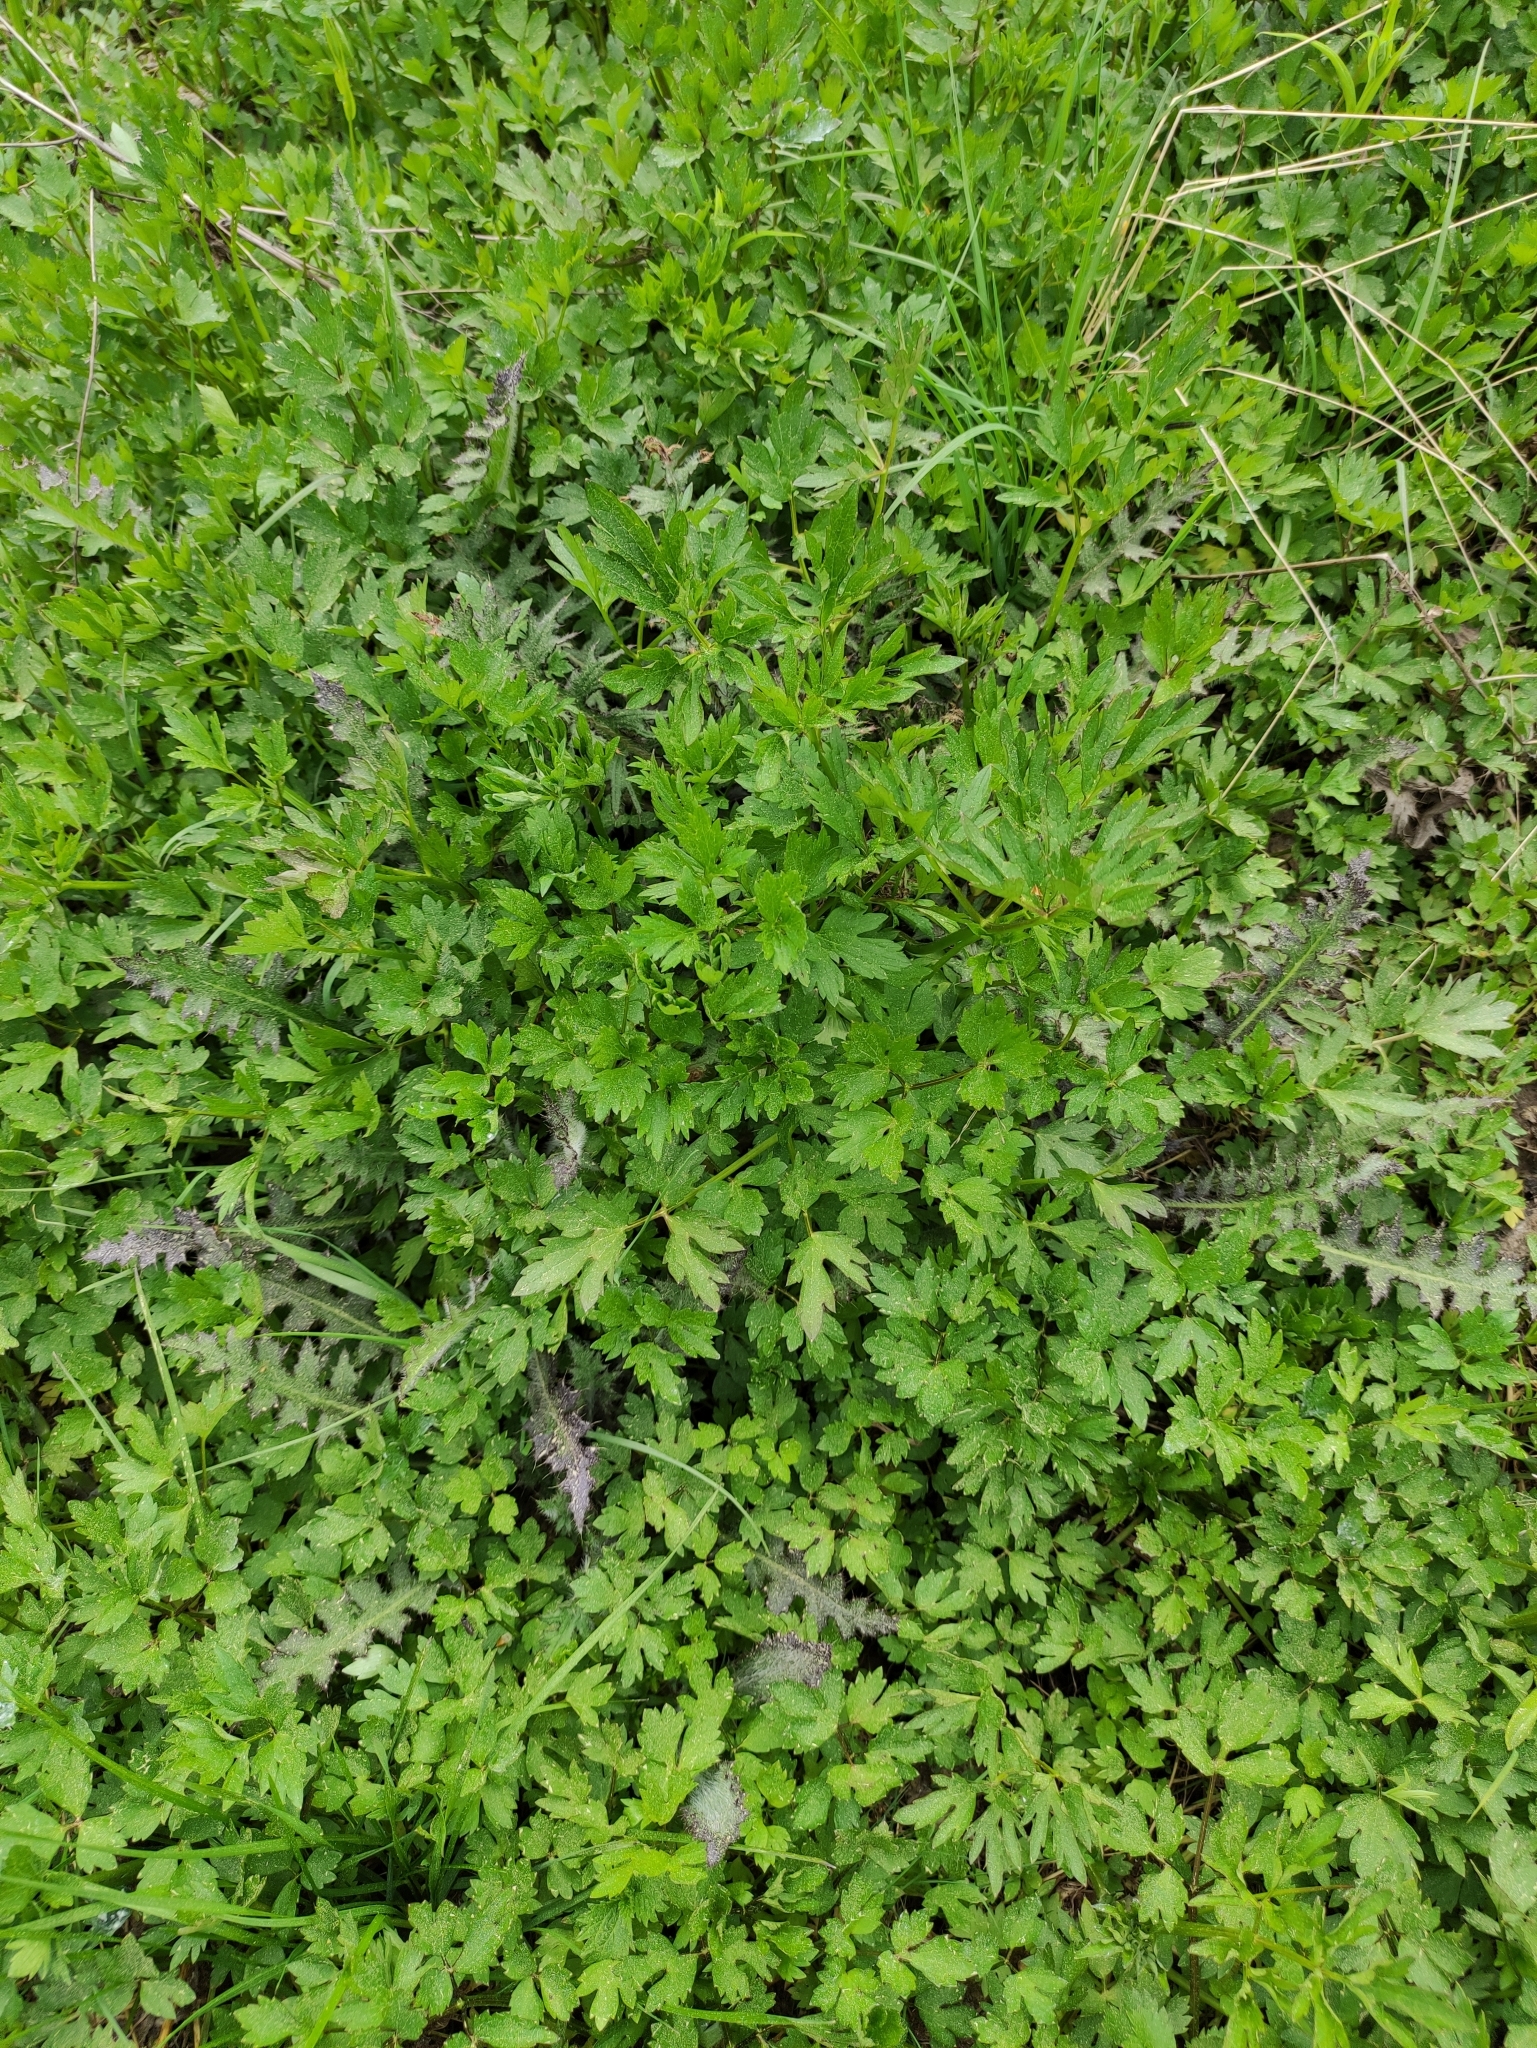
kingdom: Plantae
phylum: Tracheophyta
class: Magnoliopsida
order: Ranunculales
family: Ranunculaceae
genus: Ranunculus
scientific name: Ranunculus repens
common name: Creeping buttercup
